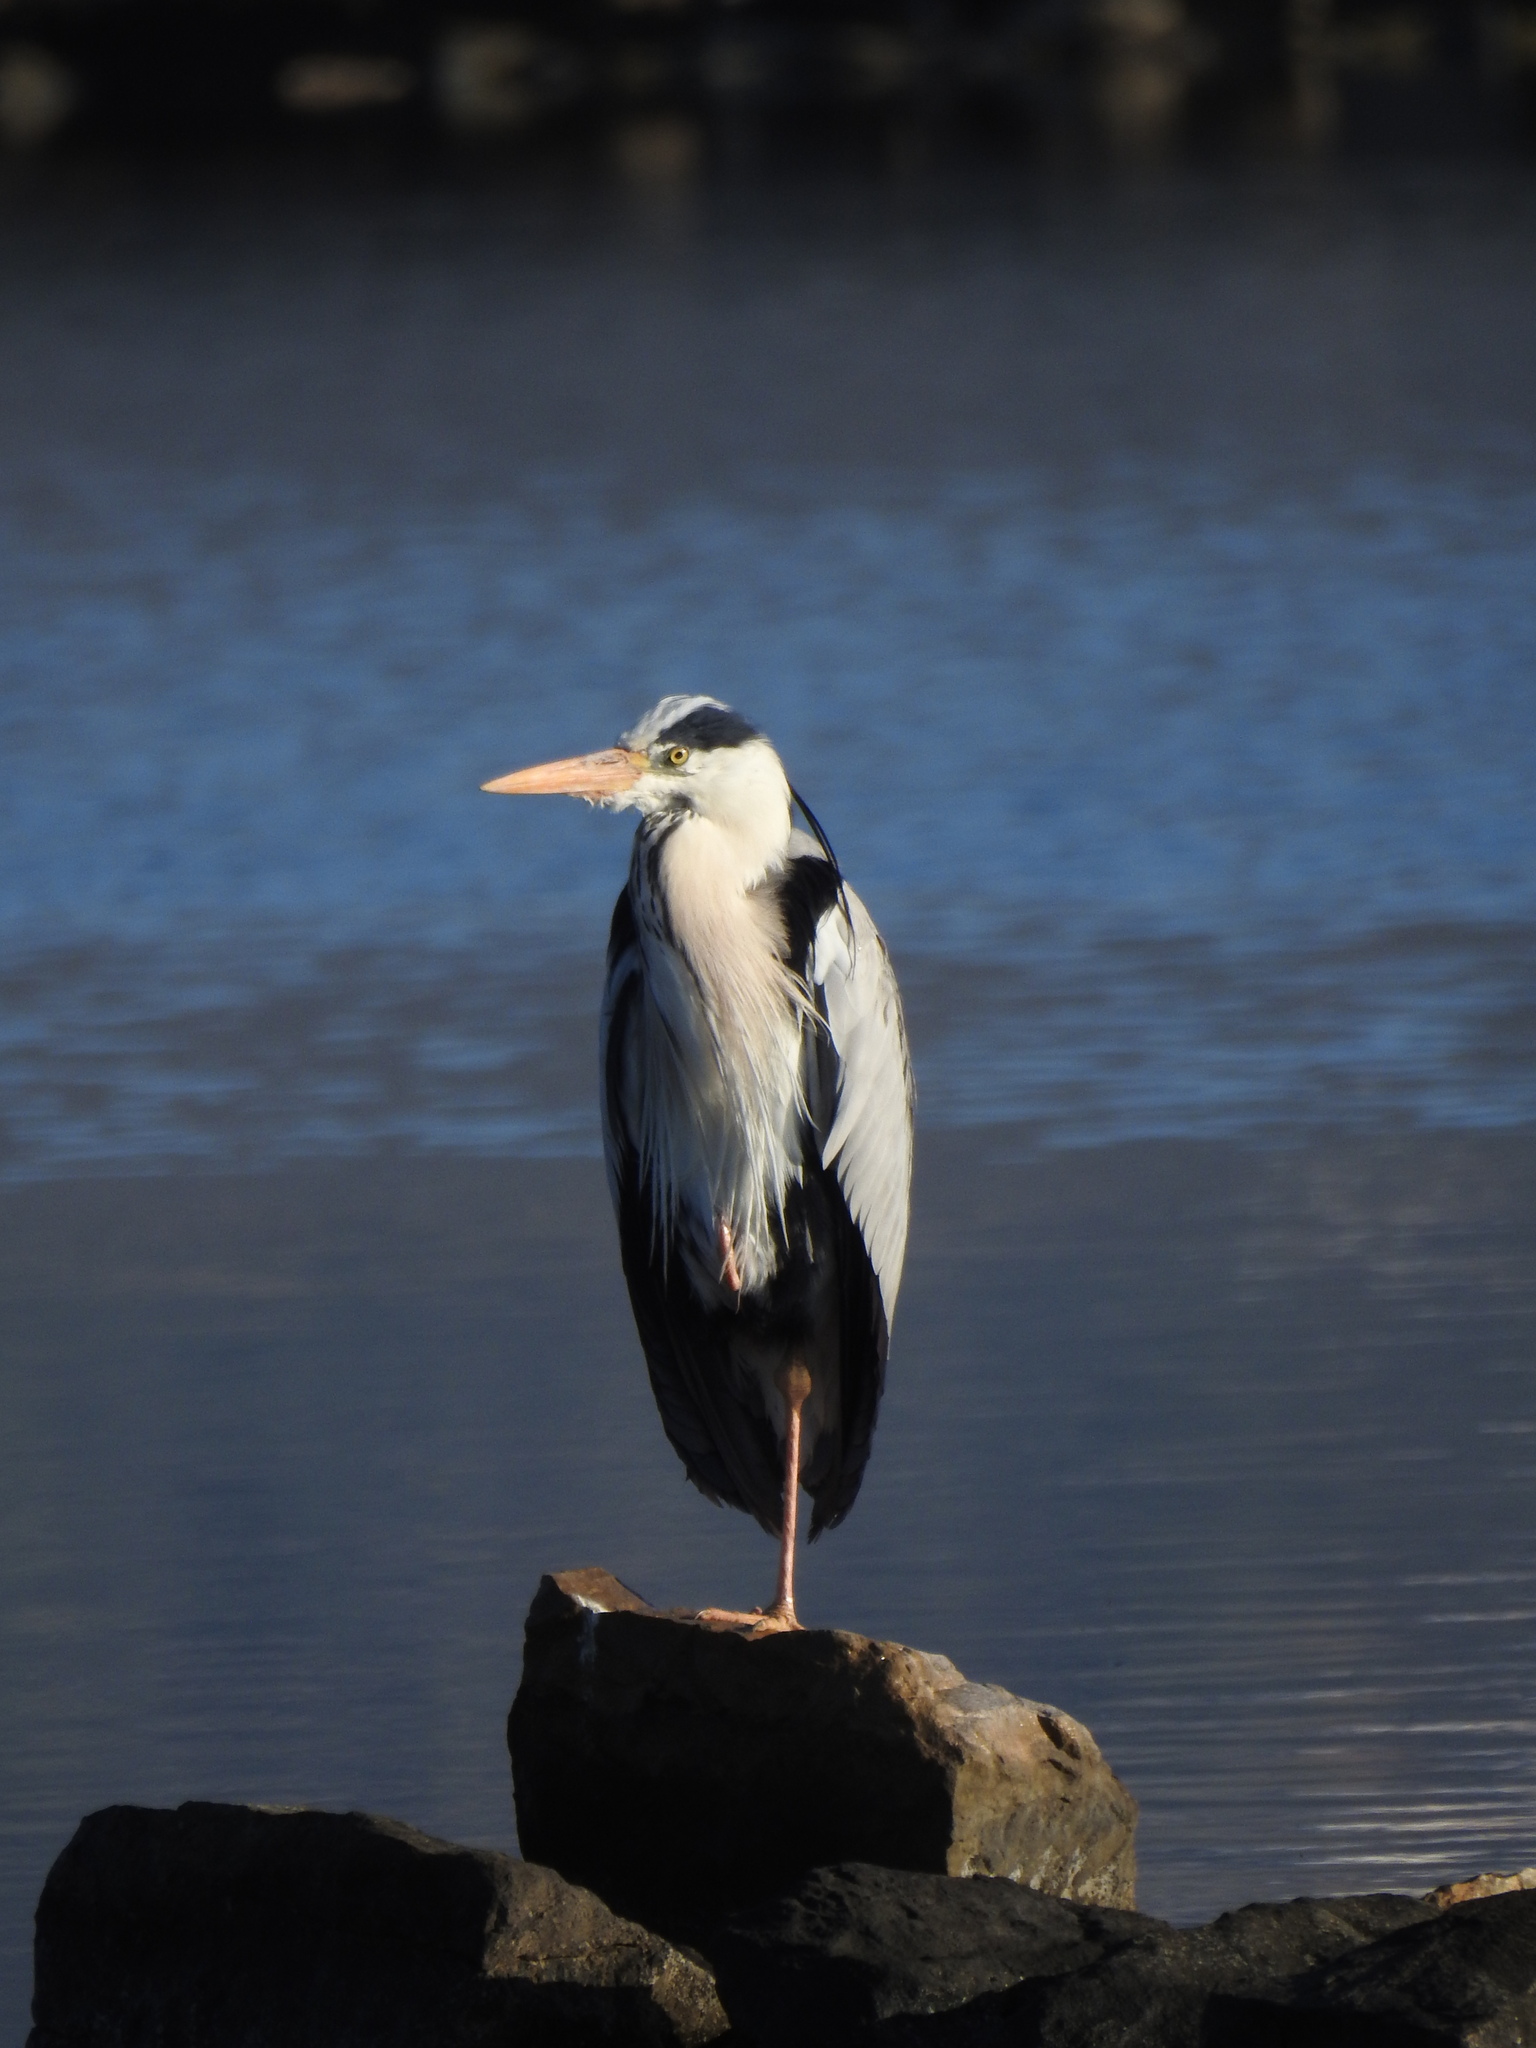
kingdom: Animalia
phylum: Chordata
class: Aves
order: Pelecaniformes
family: Ardeidae
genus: Ardea
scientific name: Ardea cinerea
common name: Grey heron
